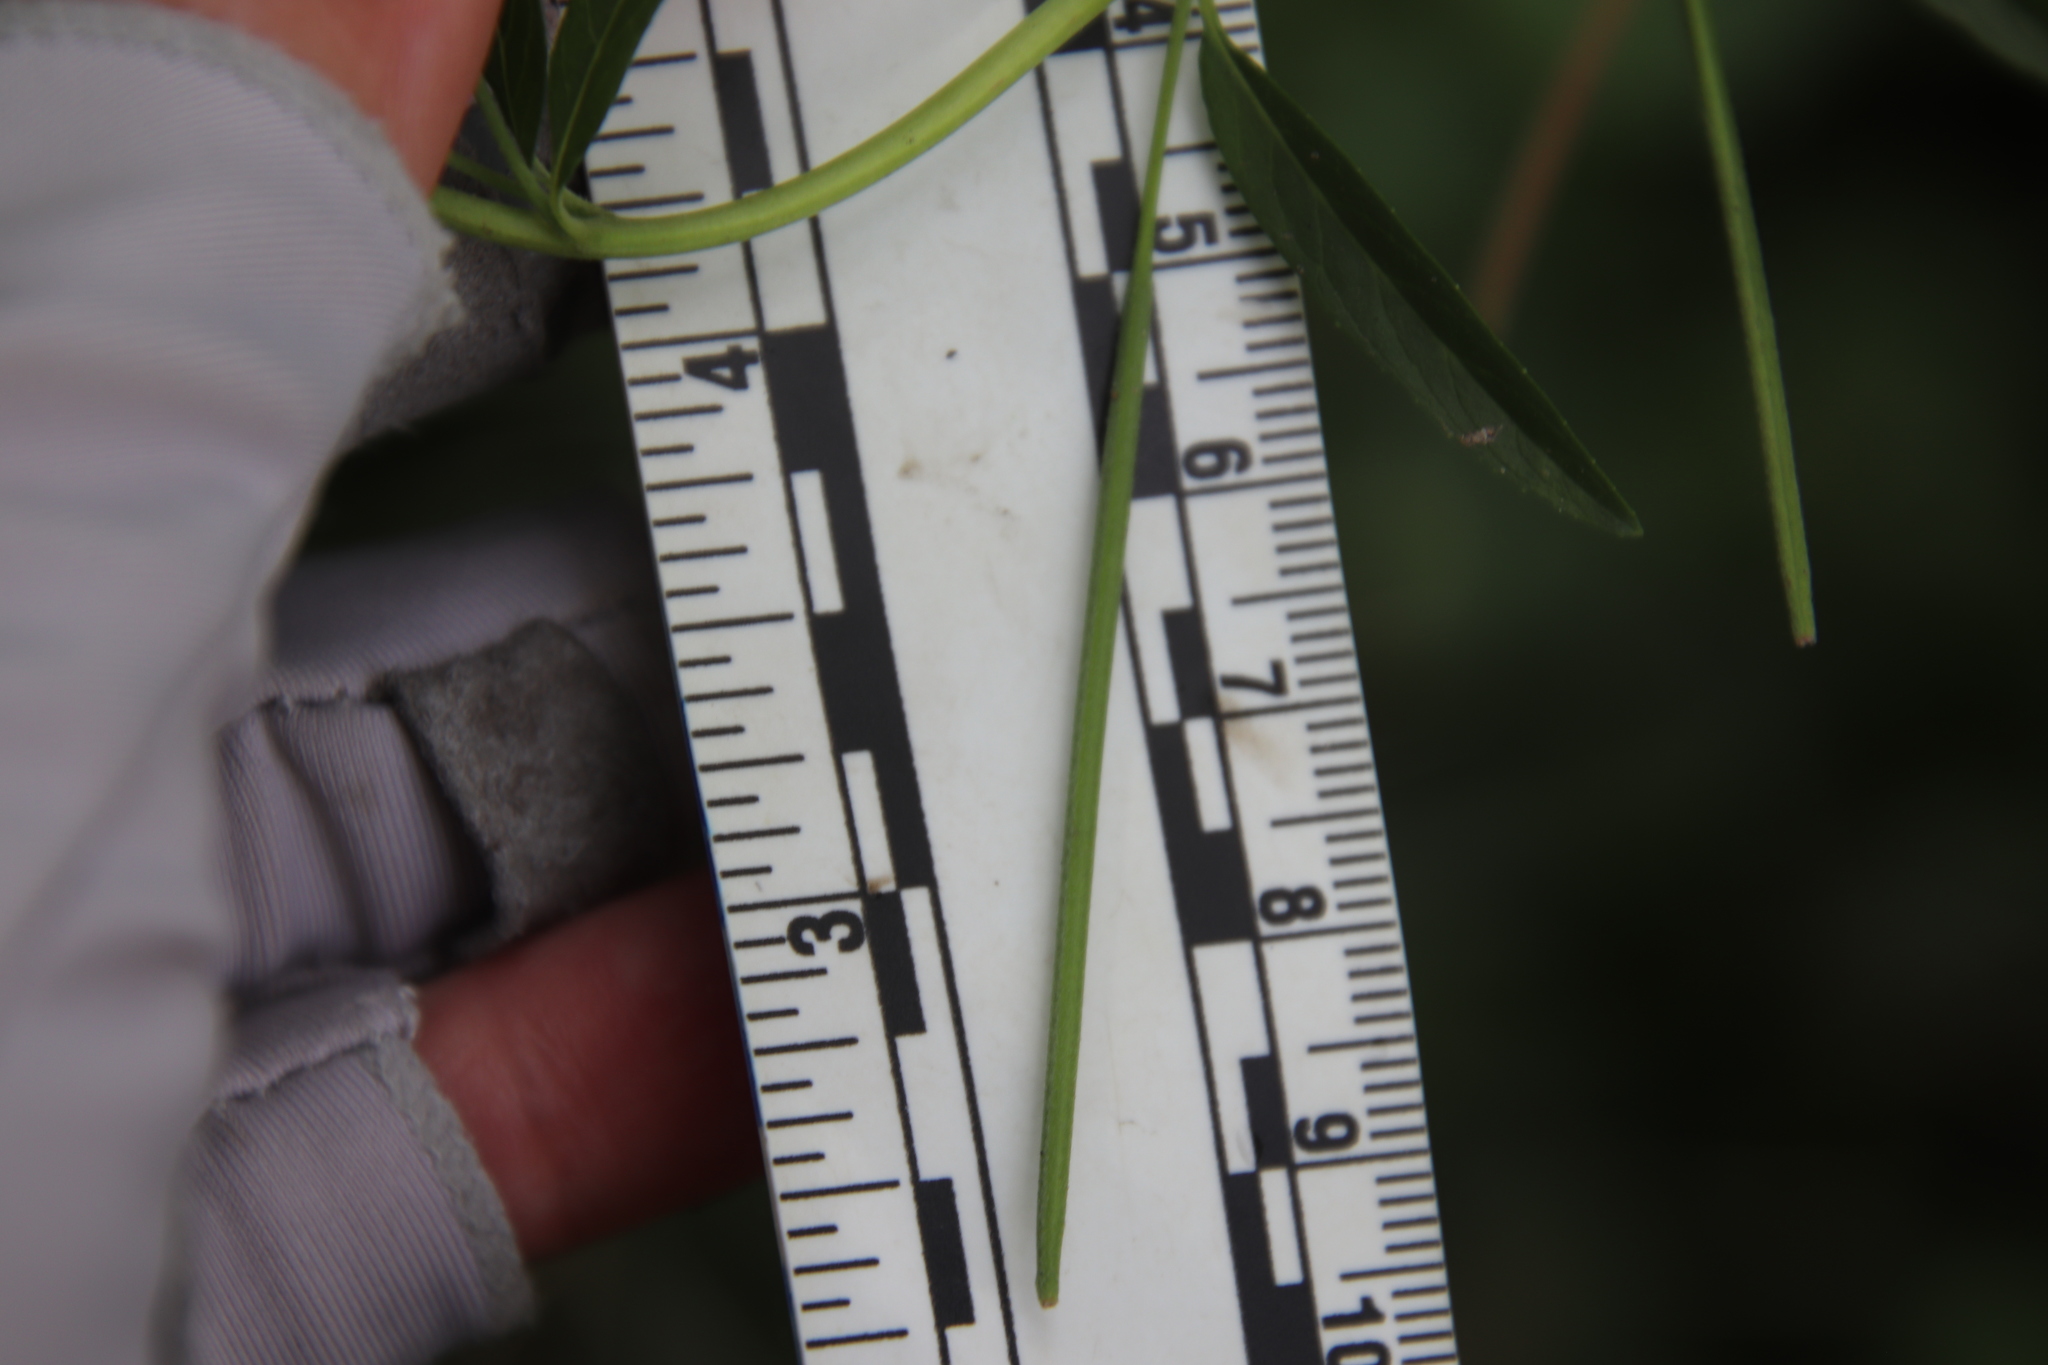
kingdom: Plantae
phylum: Tracheophyta
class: Magnoliopsida
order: Myrtales
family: Onagraceae
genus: Epilobium
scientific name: Epilobium ciliatum
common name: American willowherb
